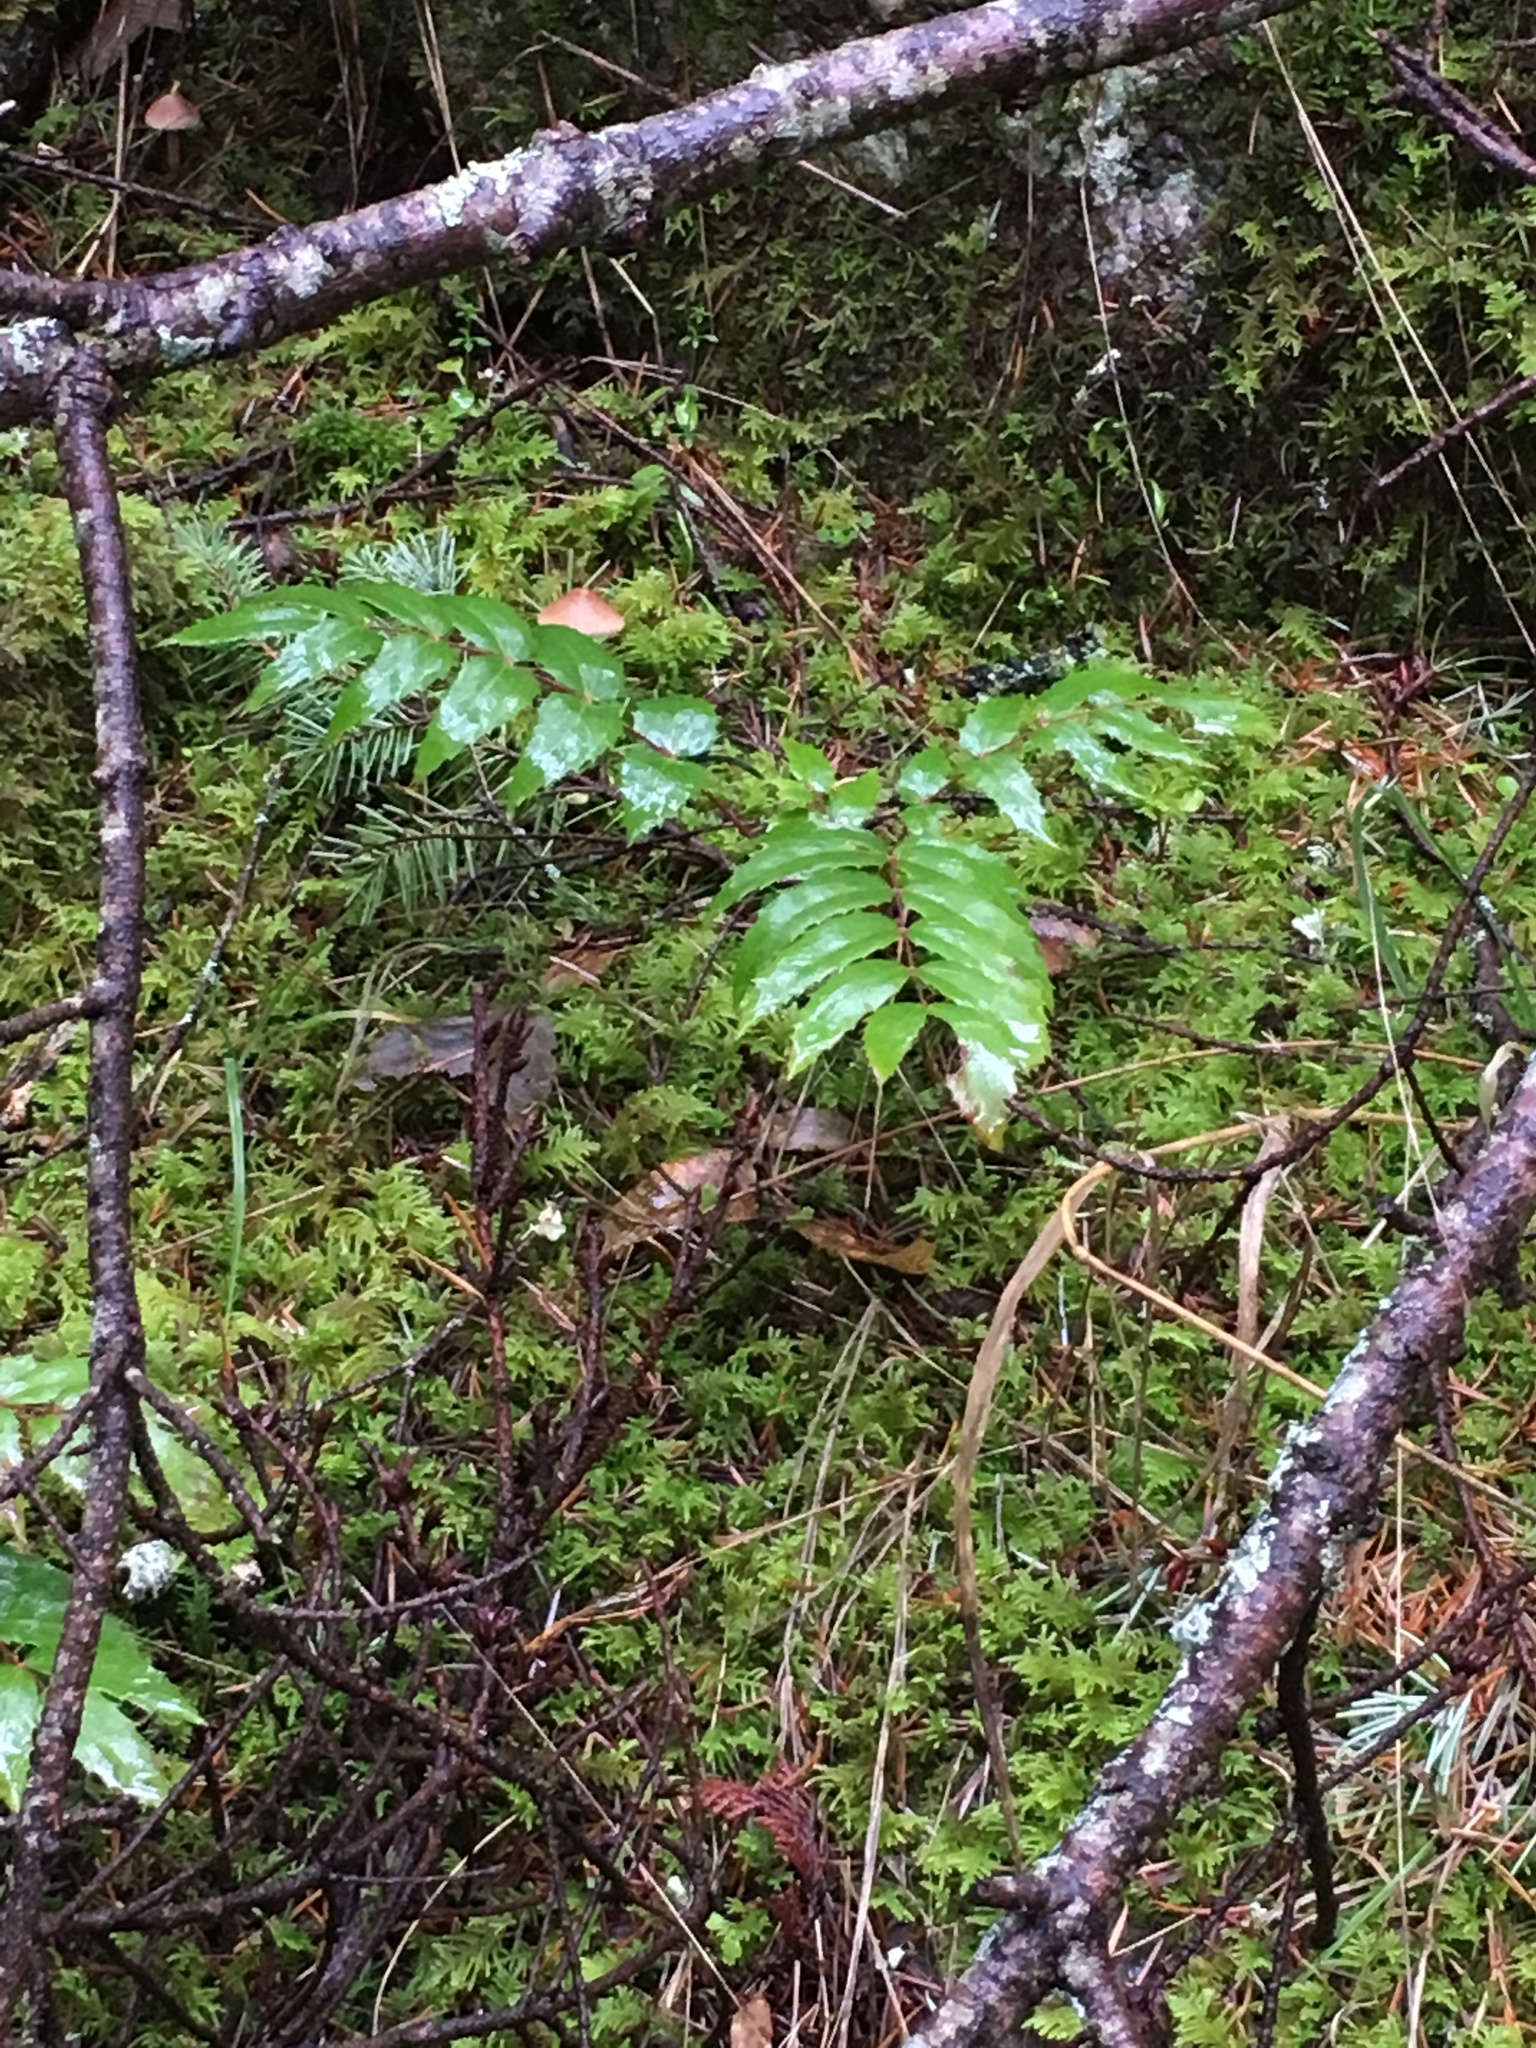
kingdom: Plantae
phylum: Tracheophyta
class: Magnoliopsida
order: Ranunculales
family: Berberidaceae
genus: Mahonia
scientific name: Mahonia nervosa
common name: Cascade oregon-grape
